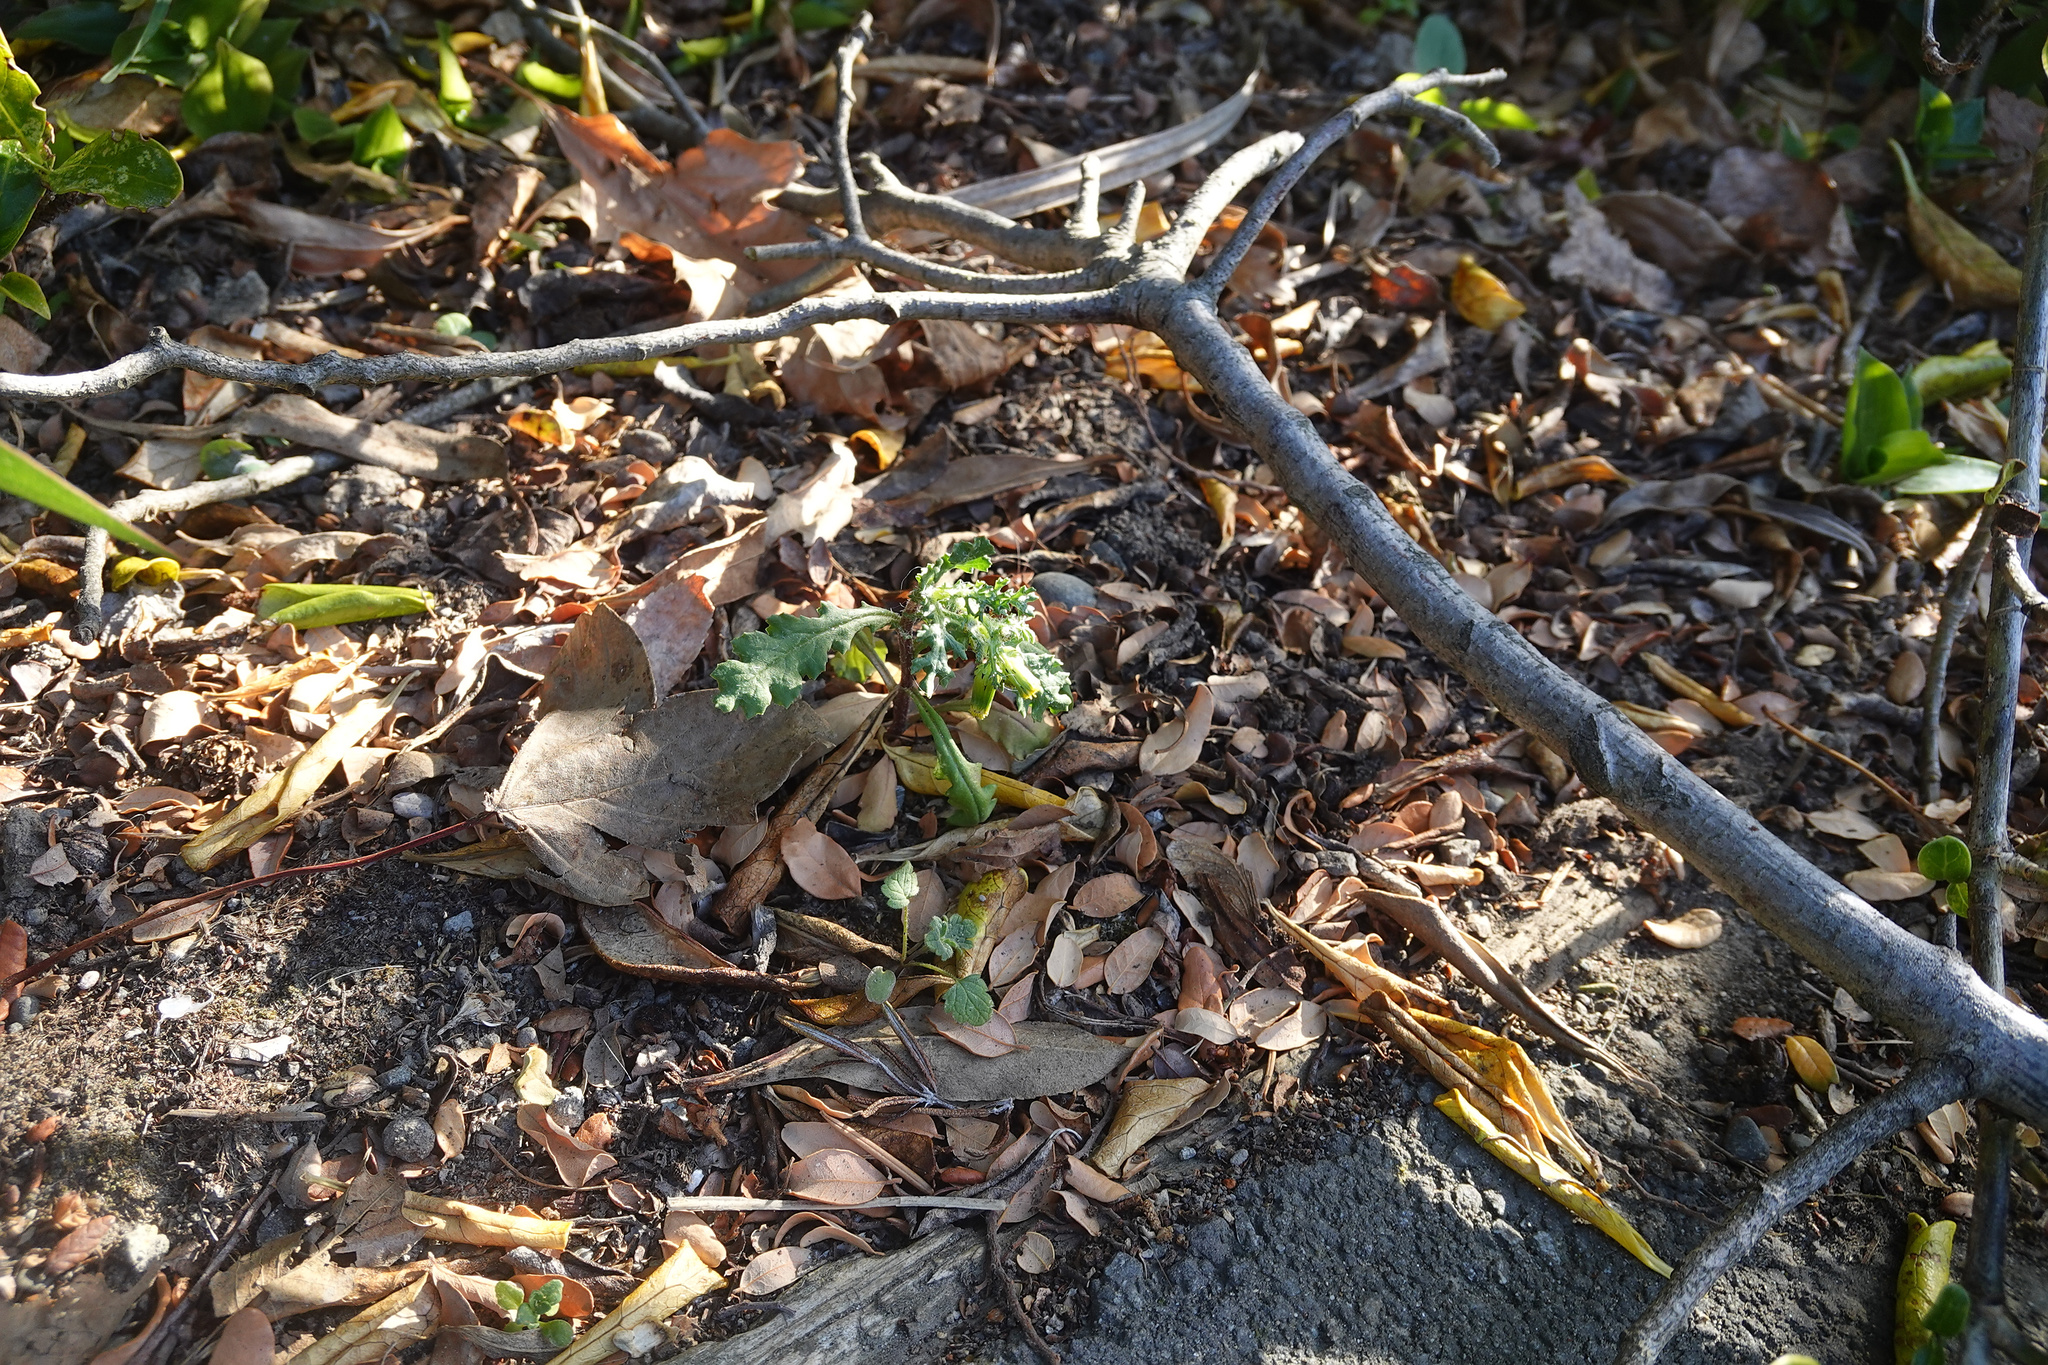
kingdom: Plantae
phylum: Tracheophyta
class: Magnoliopsida
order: Asterales
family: Asteraceae
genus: Senecio
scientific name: Senecio vulgaris
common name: Old-man-in-the-spring
